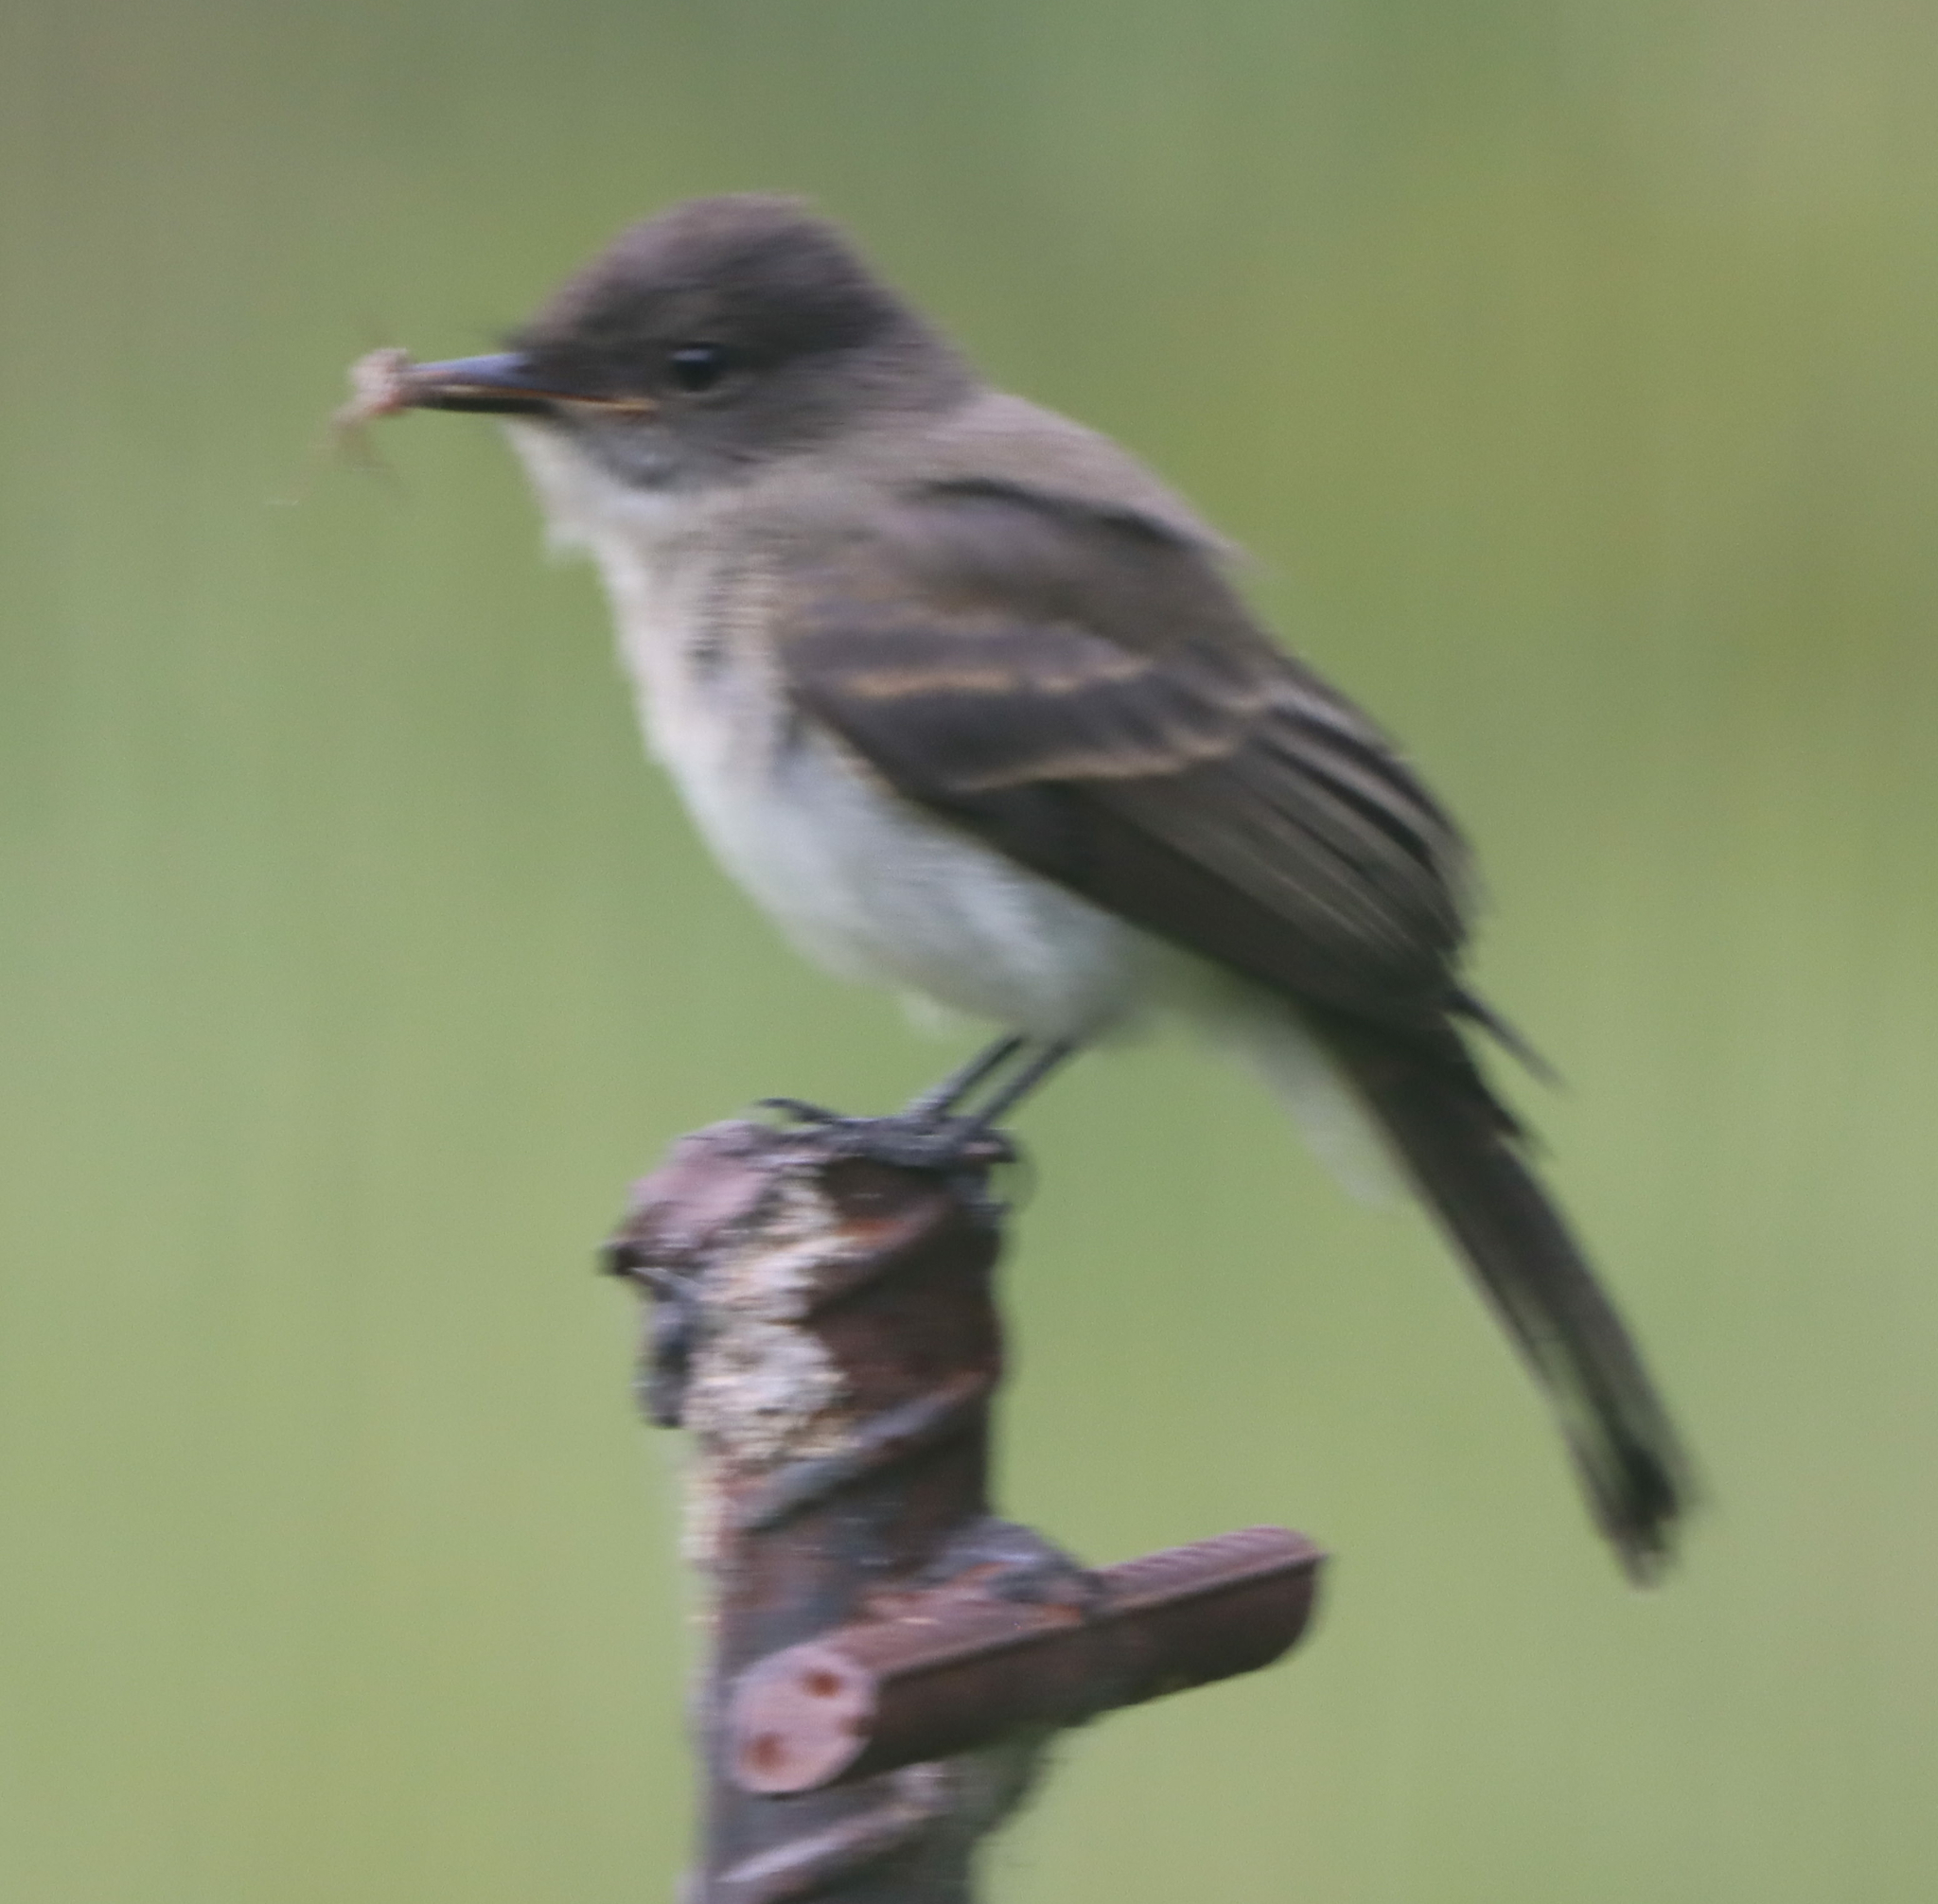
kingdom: Animalia
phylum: Chordata
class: Aves
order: Passeriformes
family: Tyrannidae
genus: Sayornis
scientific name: Sayornis phoebe
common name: Eastern phoebe
